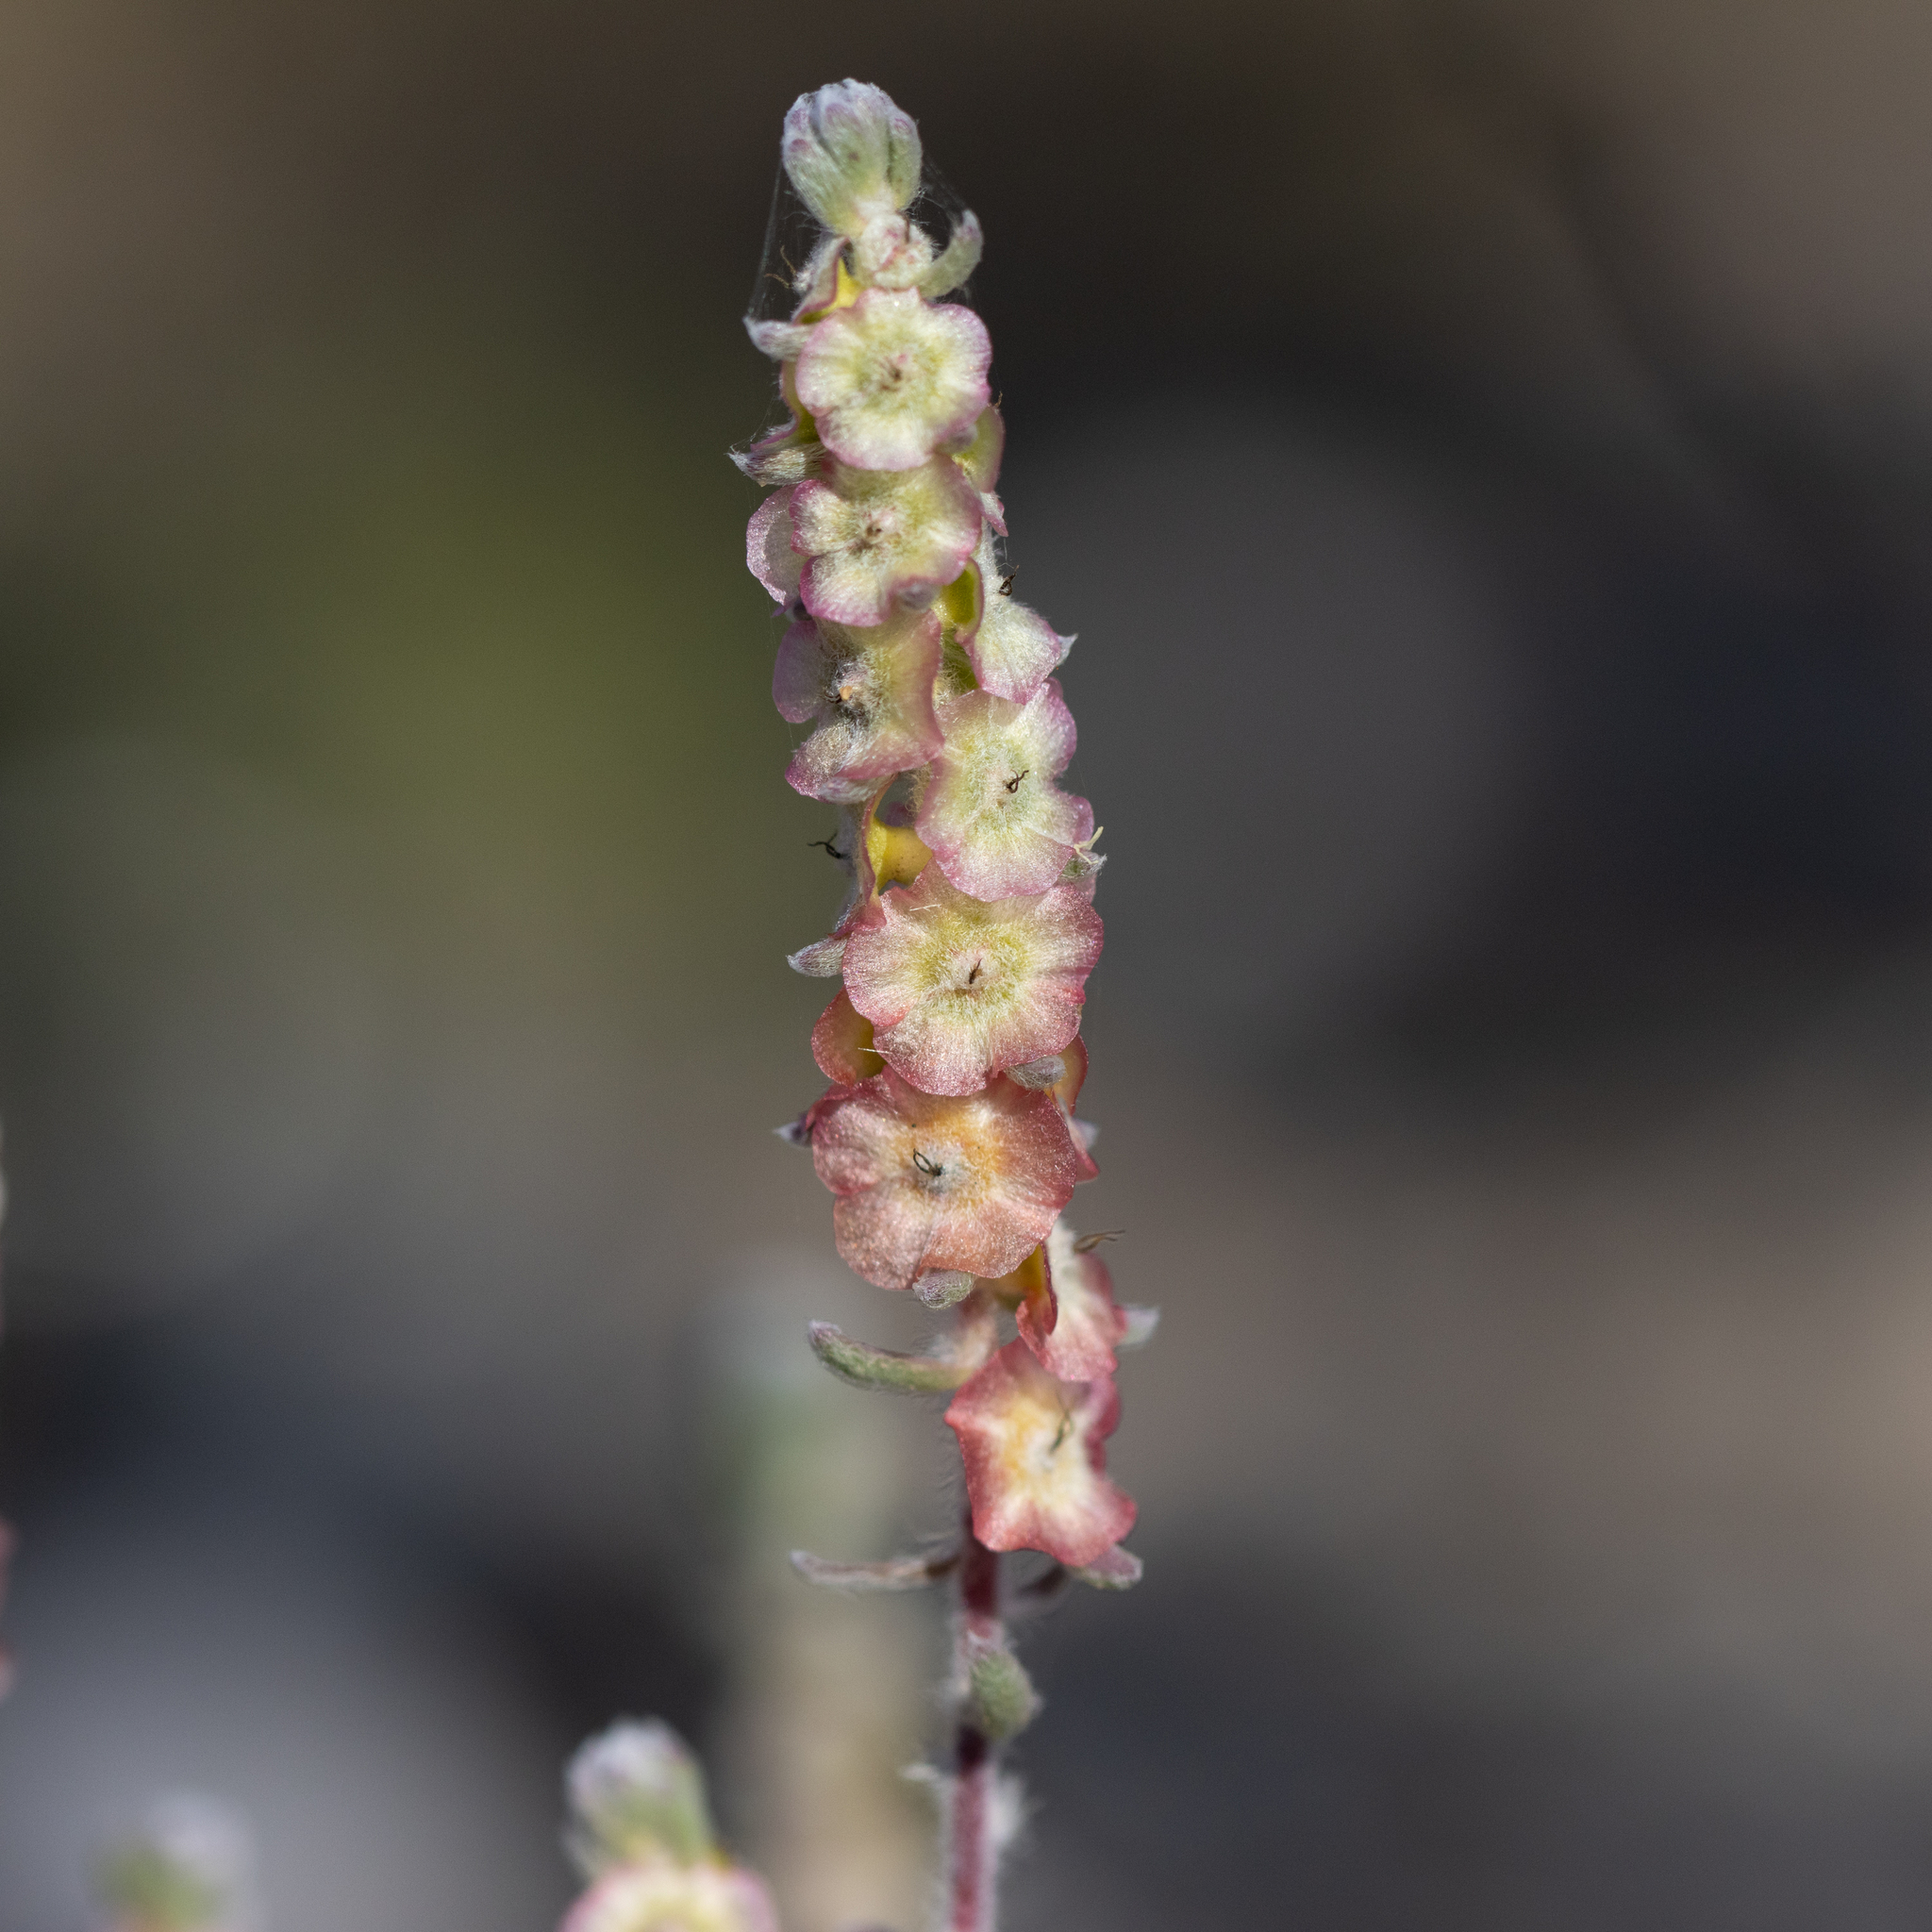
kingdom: Plantae
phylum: Tracheophyta
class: Magnoliopsida
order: Caryophyllales
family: Amaranthaceae
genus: Maireana
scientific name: Maireana trichoptera
